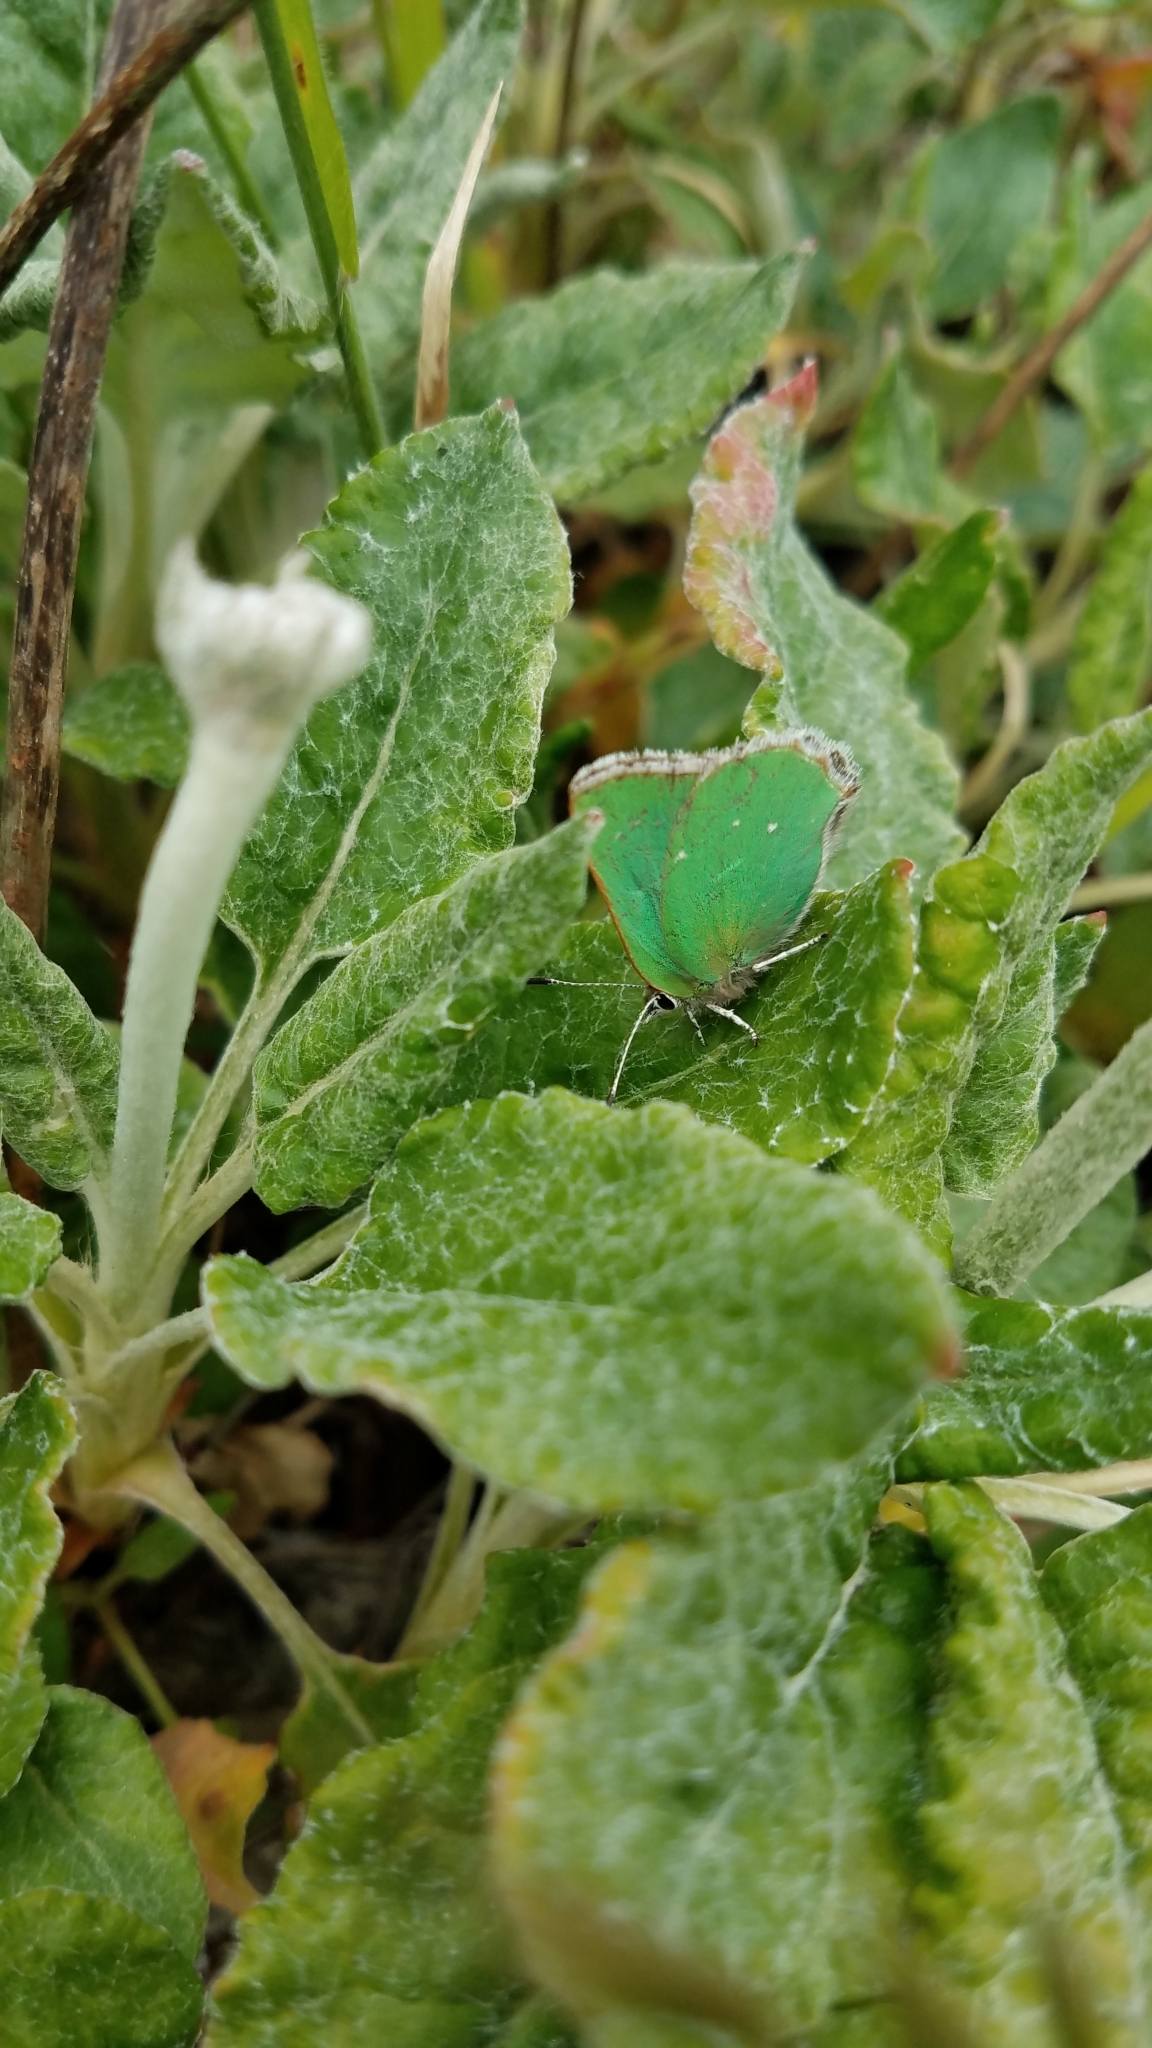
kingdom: Animalia
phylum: Arthropoda
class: Insecta
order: Lepidoptera
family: Lycaenidae
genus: Callophrys
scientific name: Callophrys viridis
